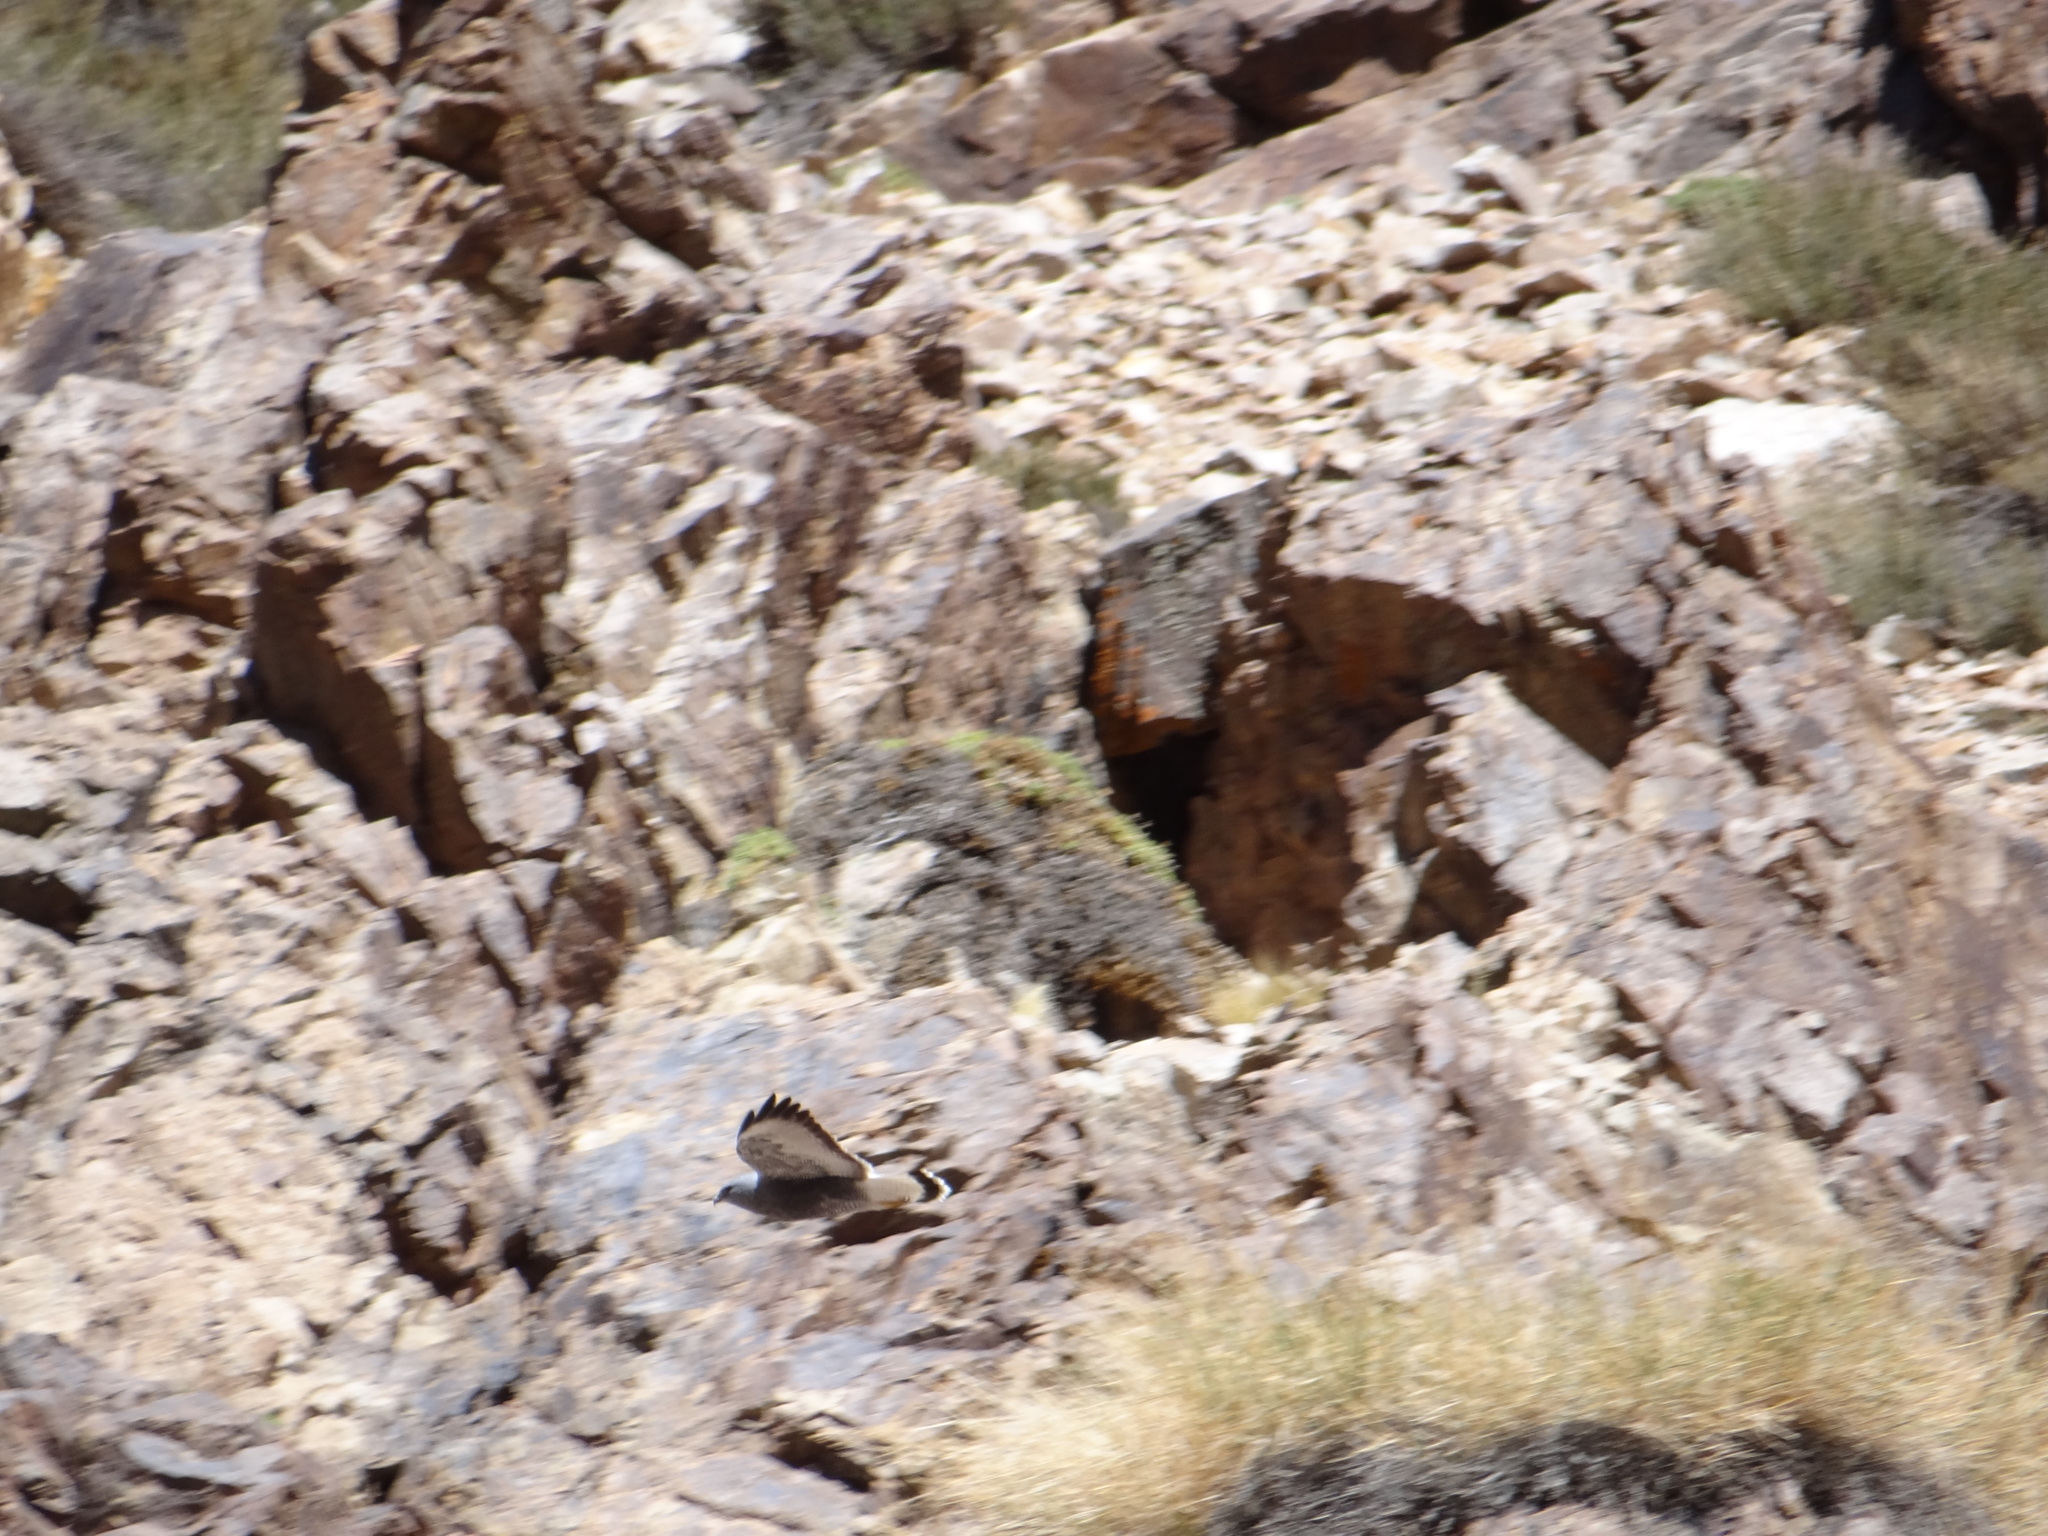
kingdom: Animalia
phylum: Chordata
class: Aves
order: Accipitriformes
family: Accipitridae
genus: Buteo
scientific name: Buteo polyosoma
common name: Variable hawk
